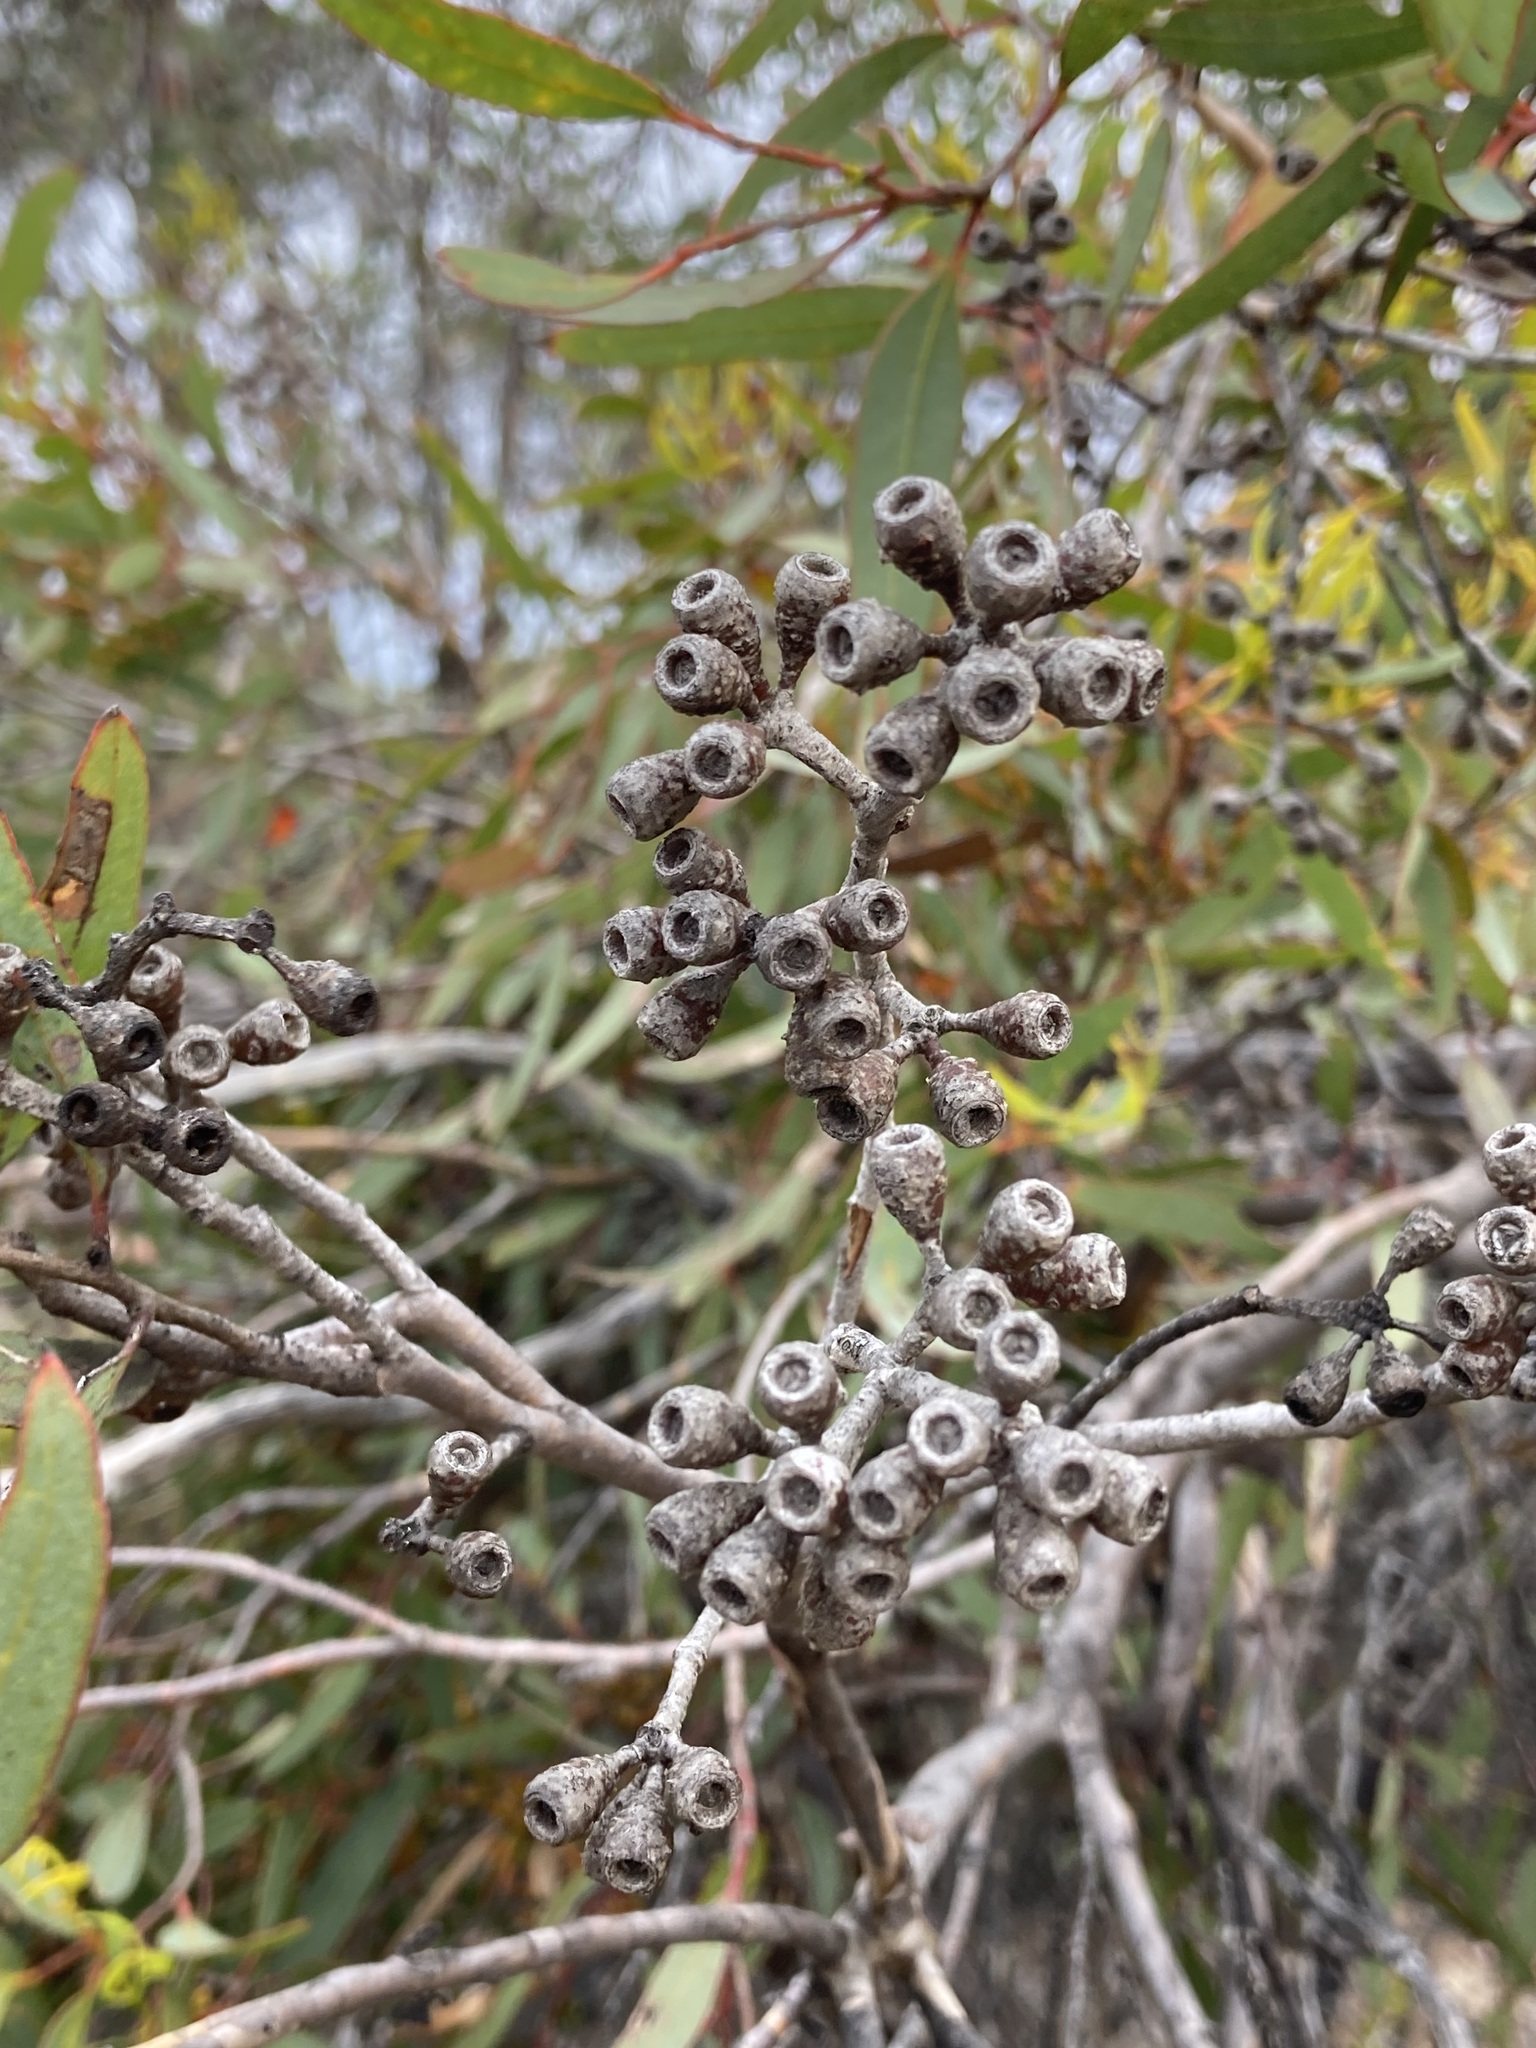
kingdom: Plantae
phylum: Tracheophyta
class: Magnoliopsida
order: Myrtales
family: Myrtaceae
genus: Eucalyptus
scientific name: Eucalyptus phaenophylla
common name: Common southern mallee
